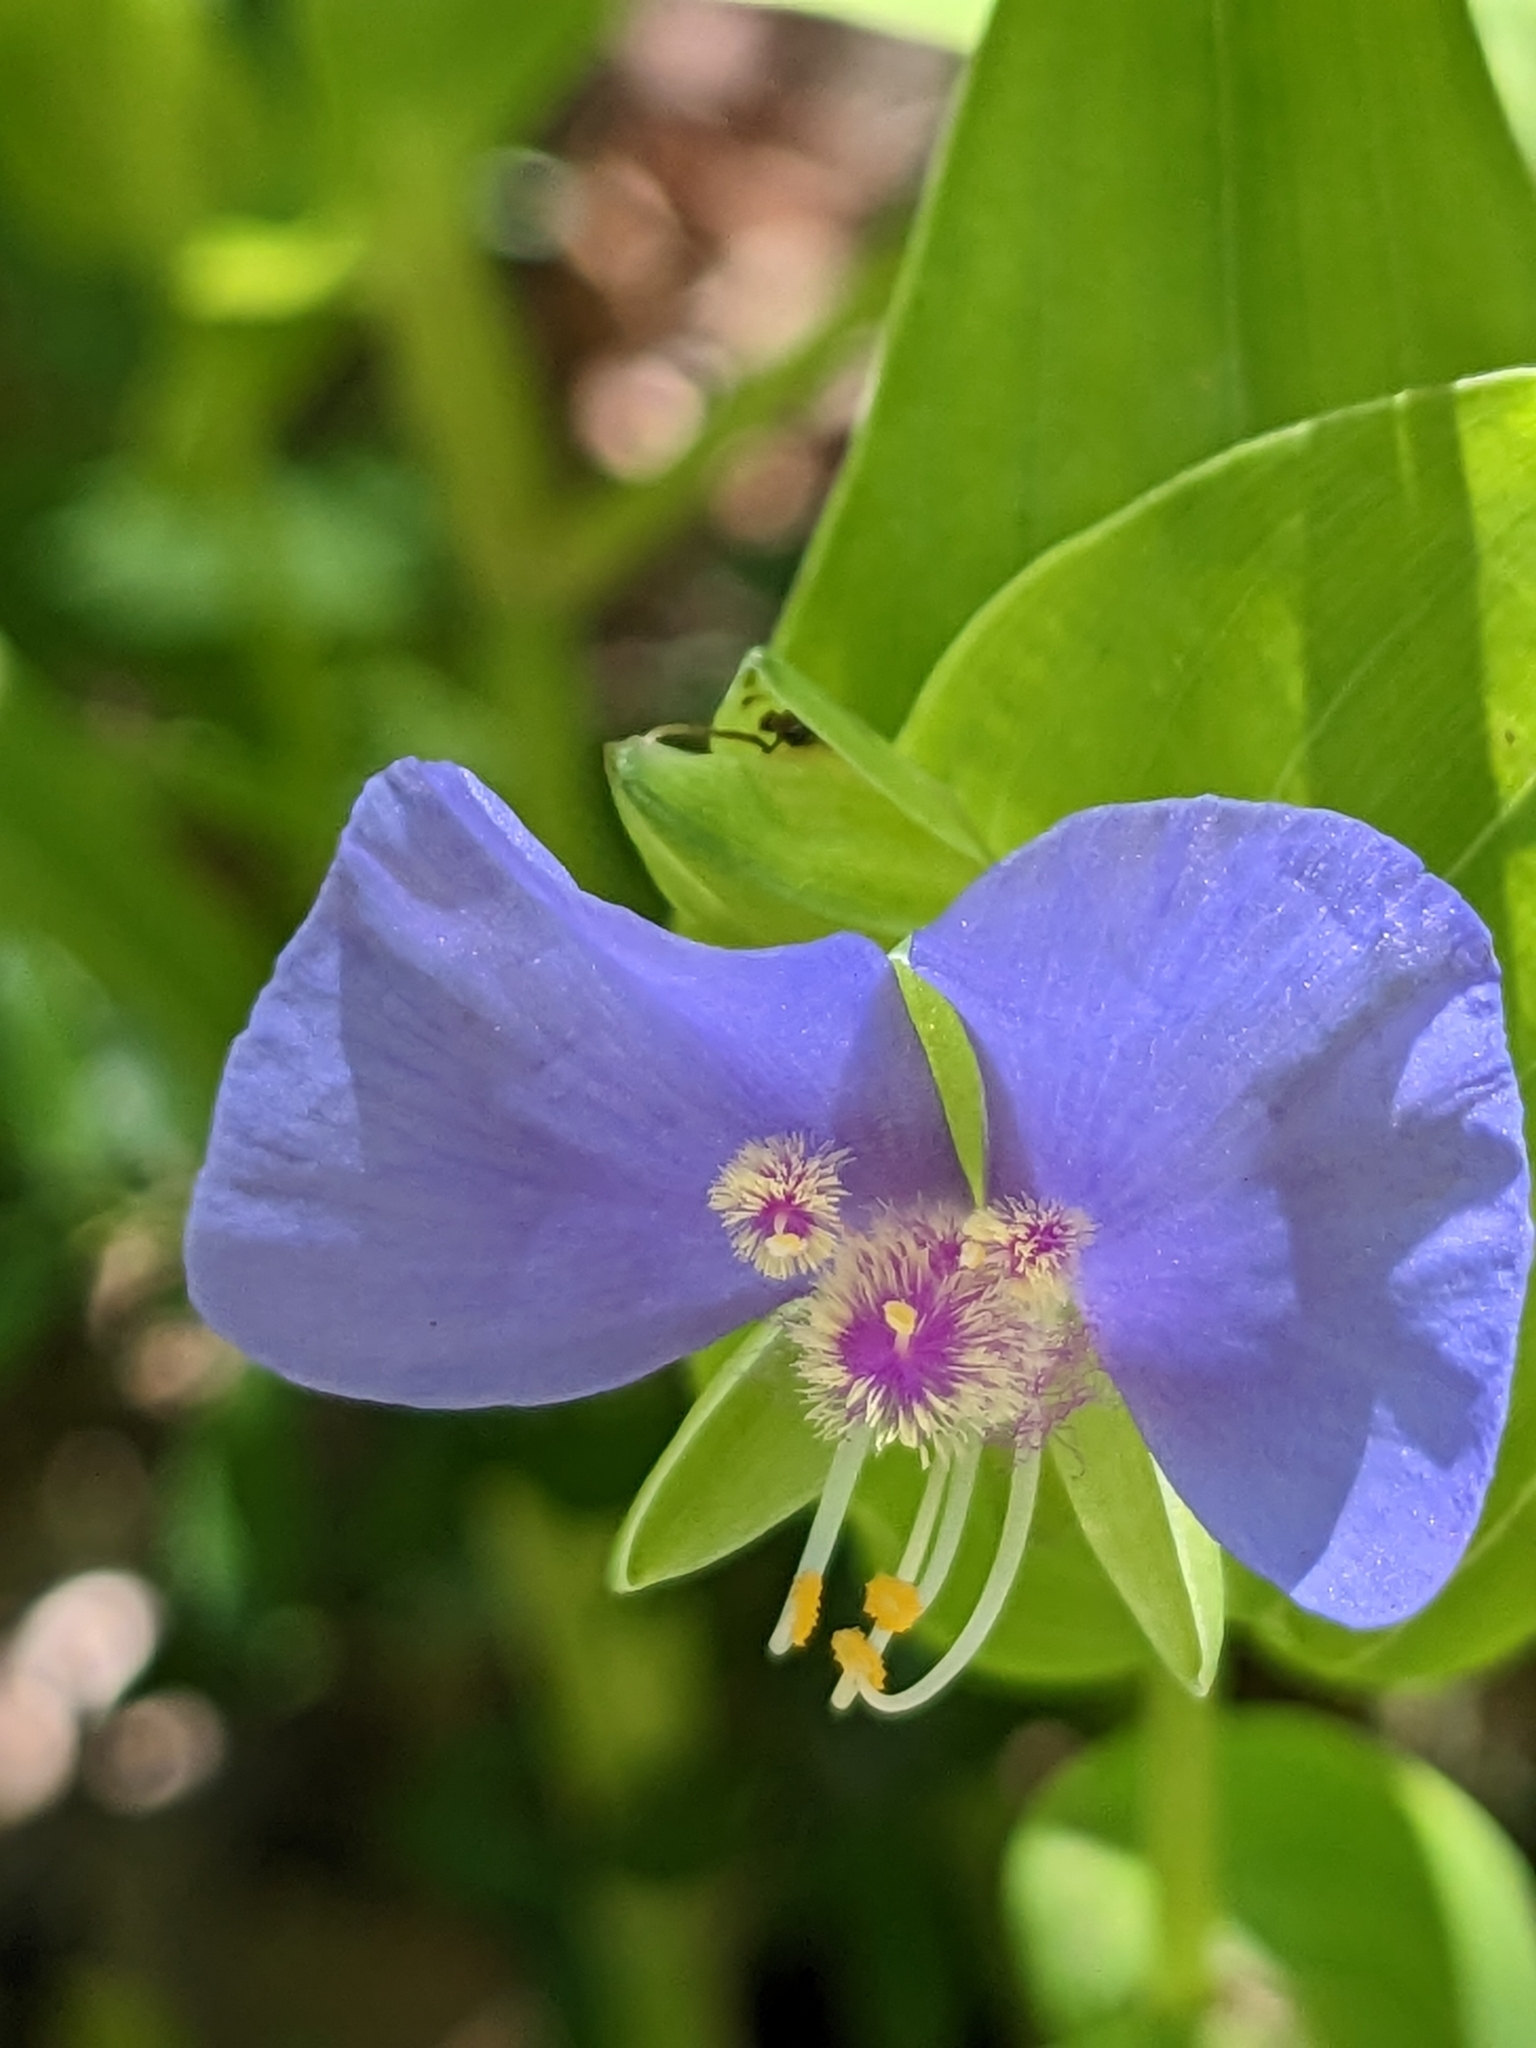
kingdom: Plantae
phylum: Tracheophyta
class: Liliopsida
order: Commelinales
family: Commelinaceae
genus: Tinantia
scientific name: Tinantia anomala
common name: False dayflower
